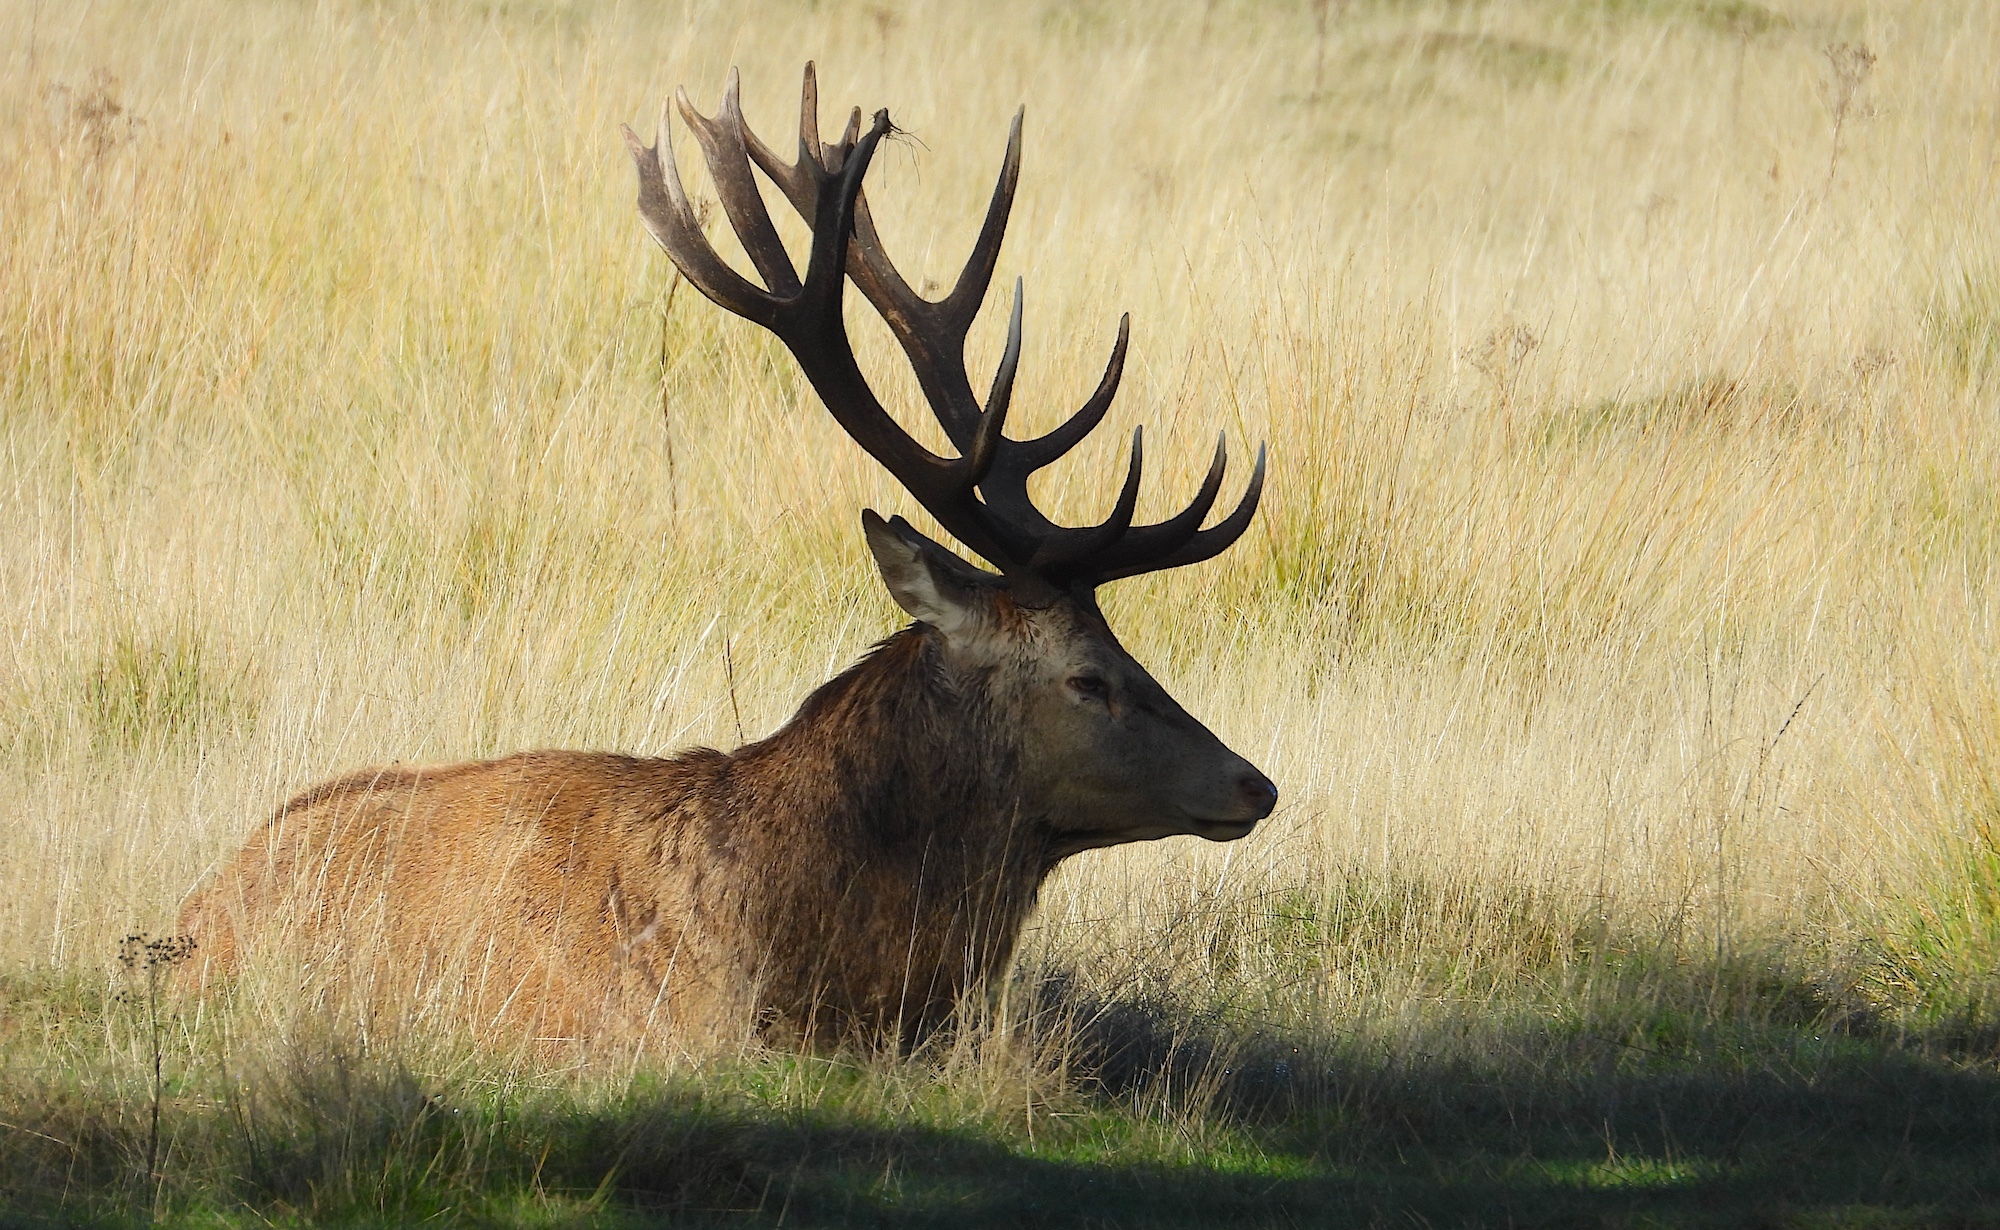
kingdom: Animalia
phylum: Chordata
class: Mammalia
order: Artiodactyla
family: Cervidae
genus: Cervus
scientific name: Cervus elaphus
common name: Red deer
